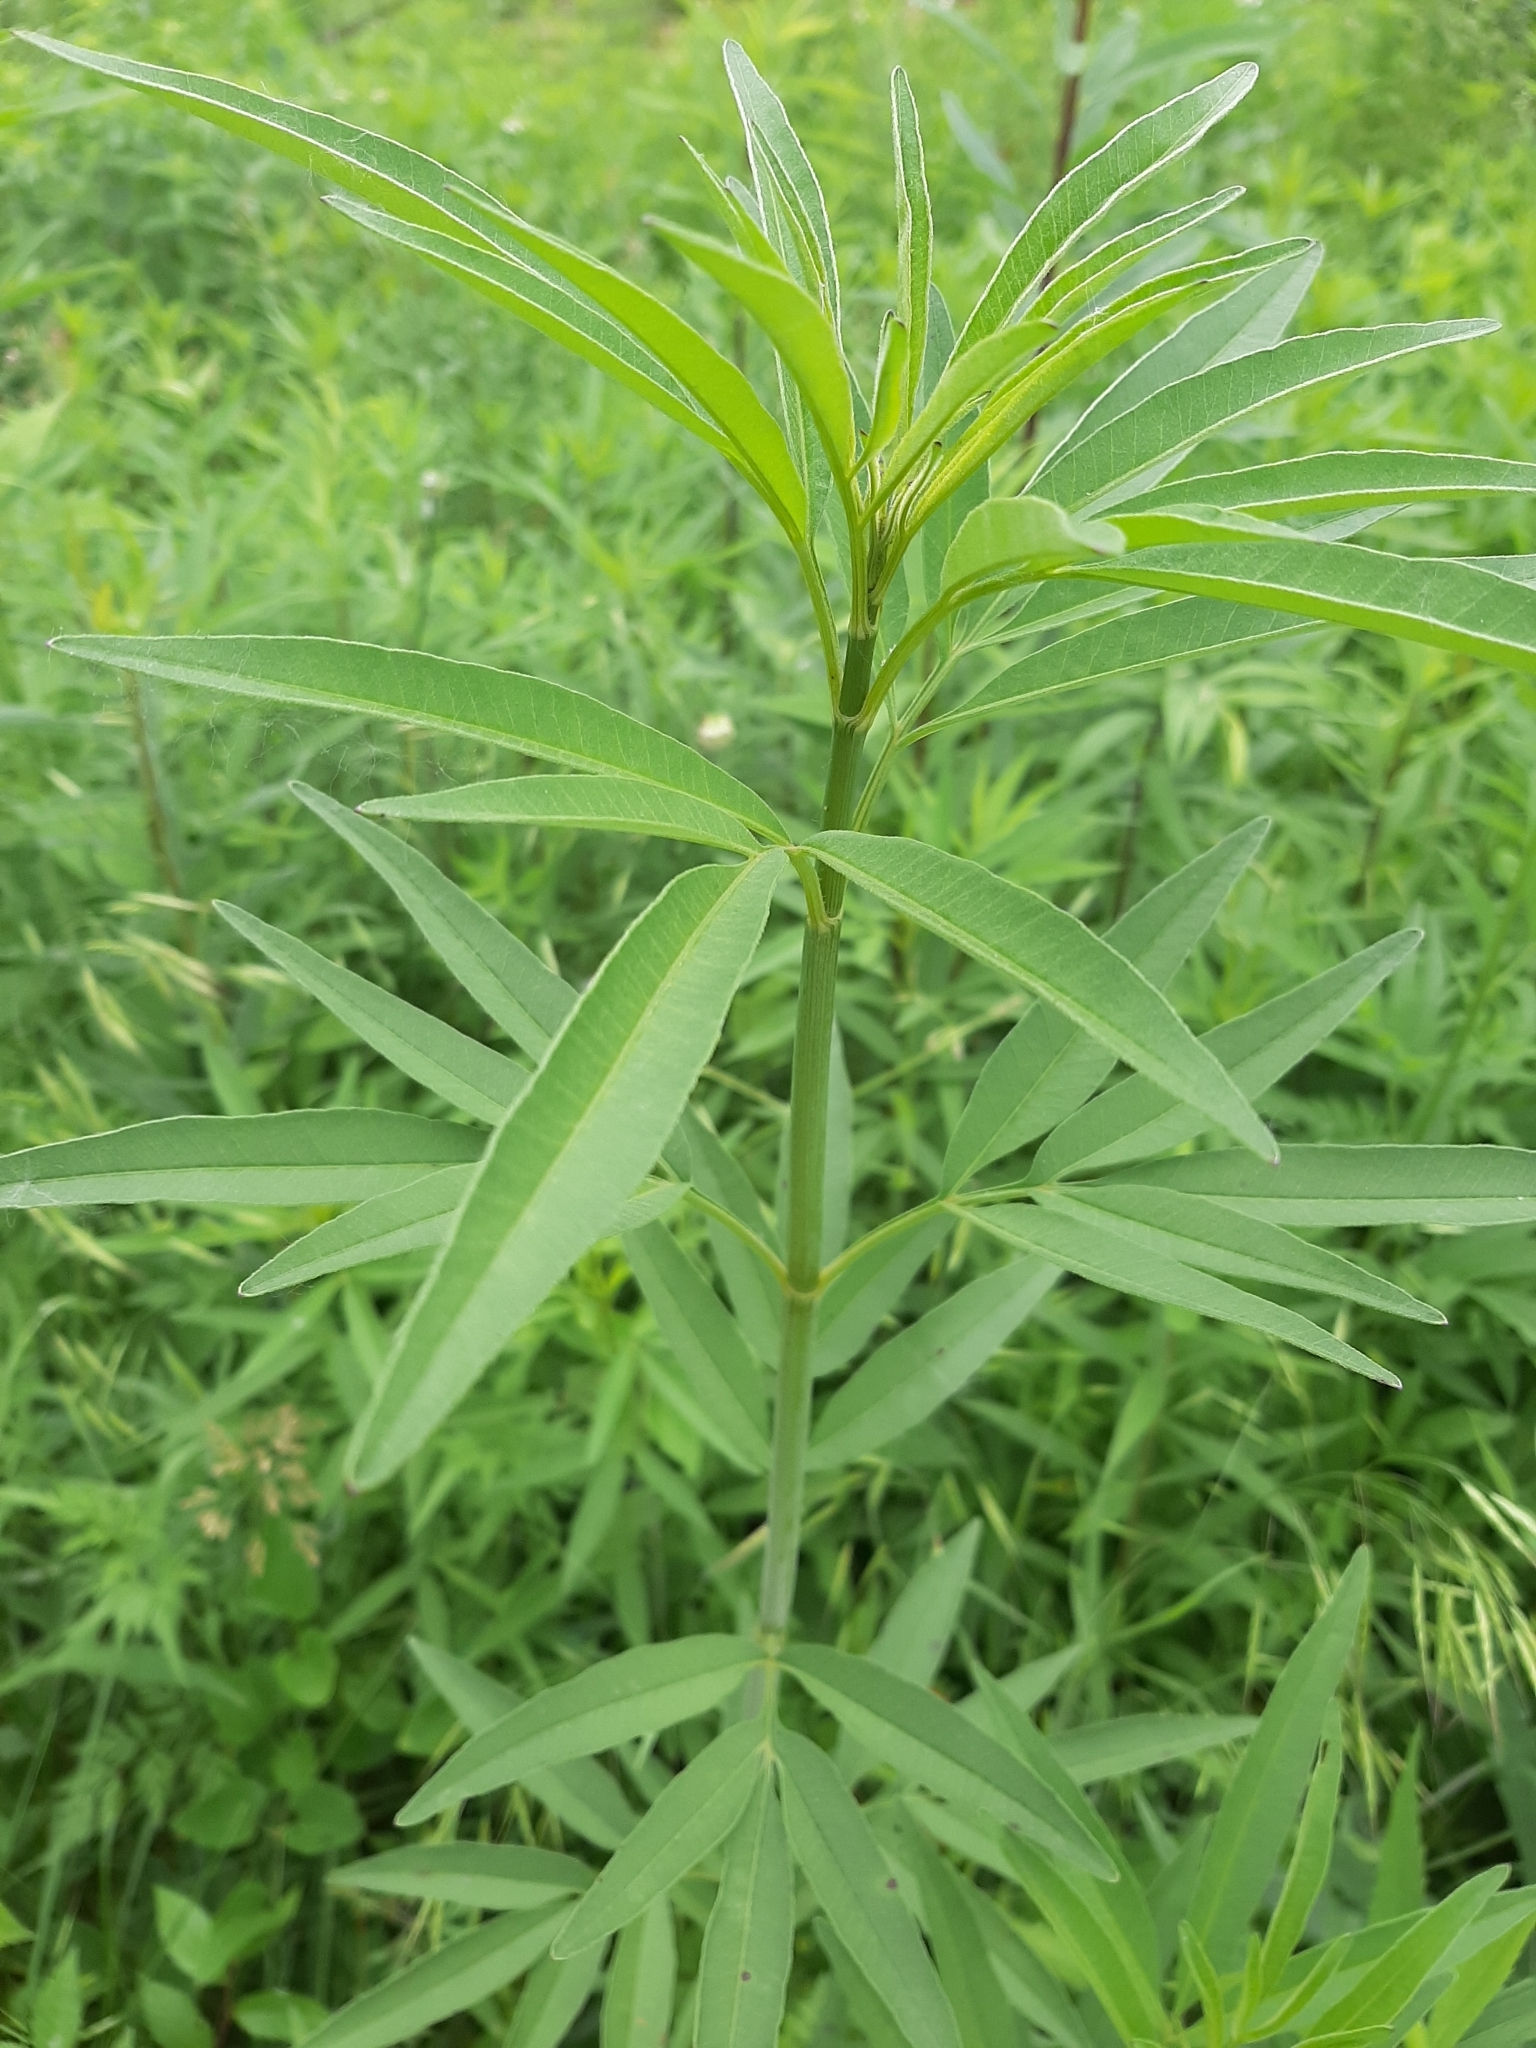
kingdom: Plantae
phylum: Tracheophyta
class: Magnoliopsida
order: Asterales
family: Asteraceae
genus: Coreopsis
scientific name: Coreopsis tripteris
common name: Tall coreopsis
